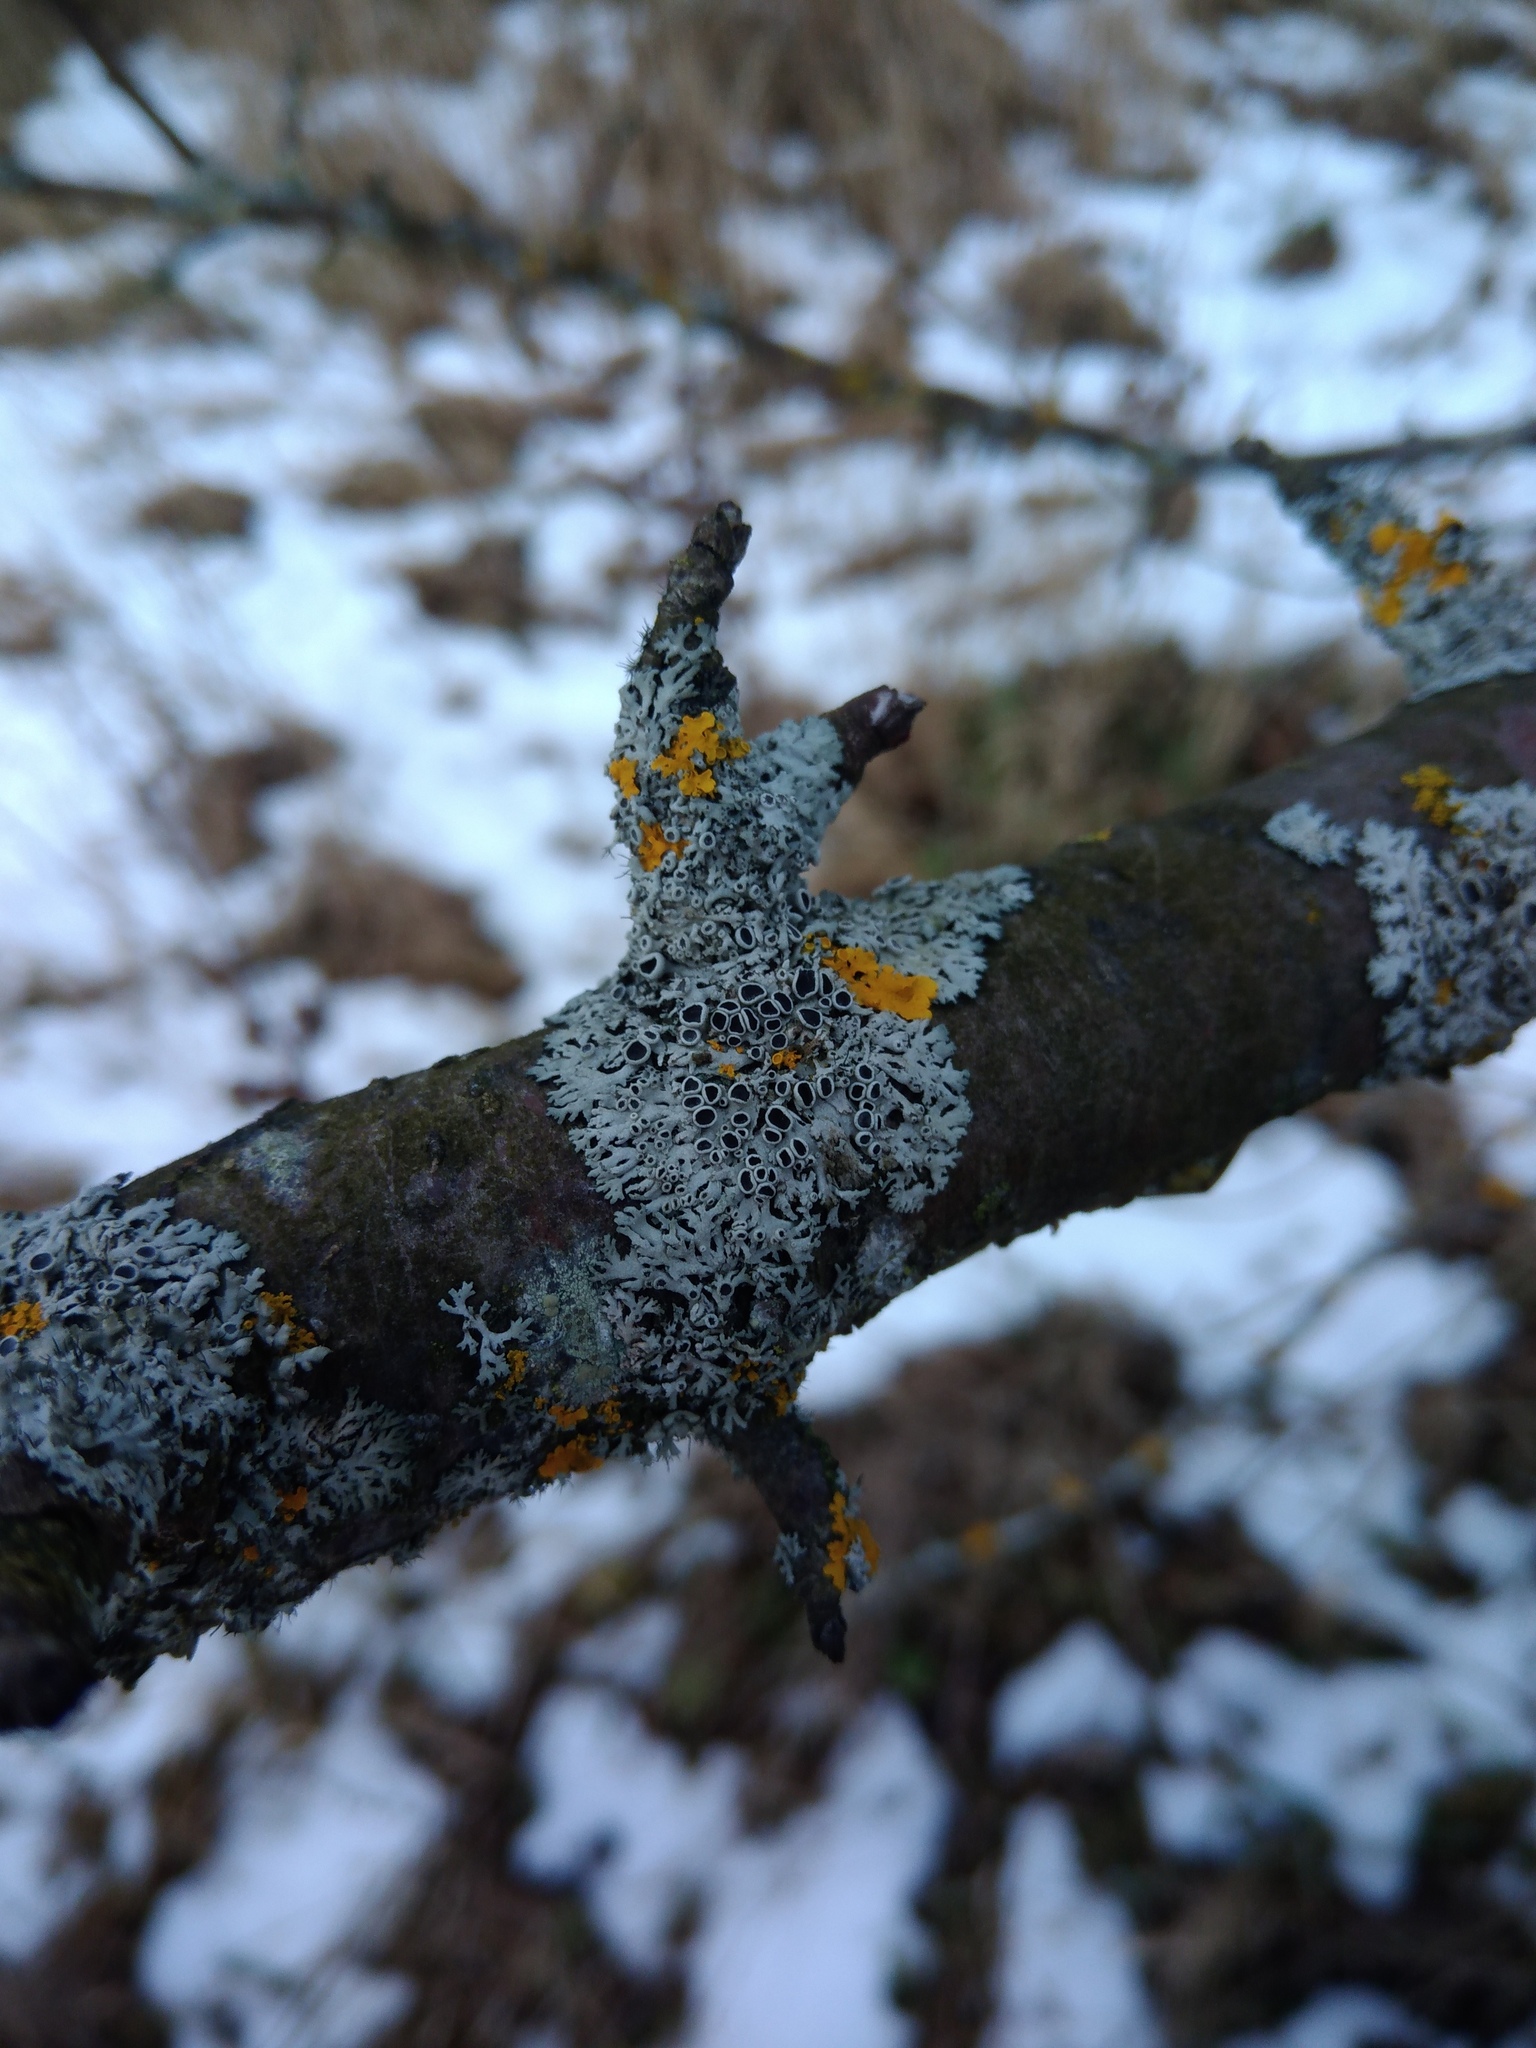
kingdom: Fungi
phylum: Ascomycota
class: Lecanoromycetes
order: Caliciales
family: Physciaceae
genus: Physcia
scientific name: Physcia stellaris
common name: Star rosette lichen
